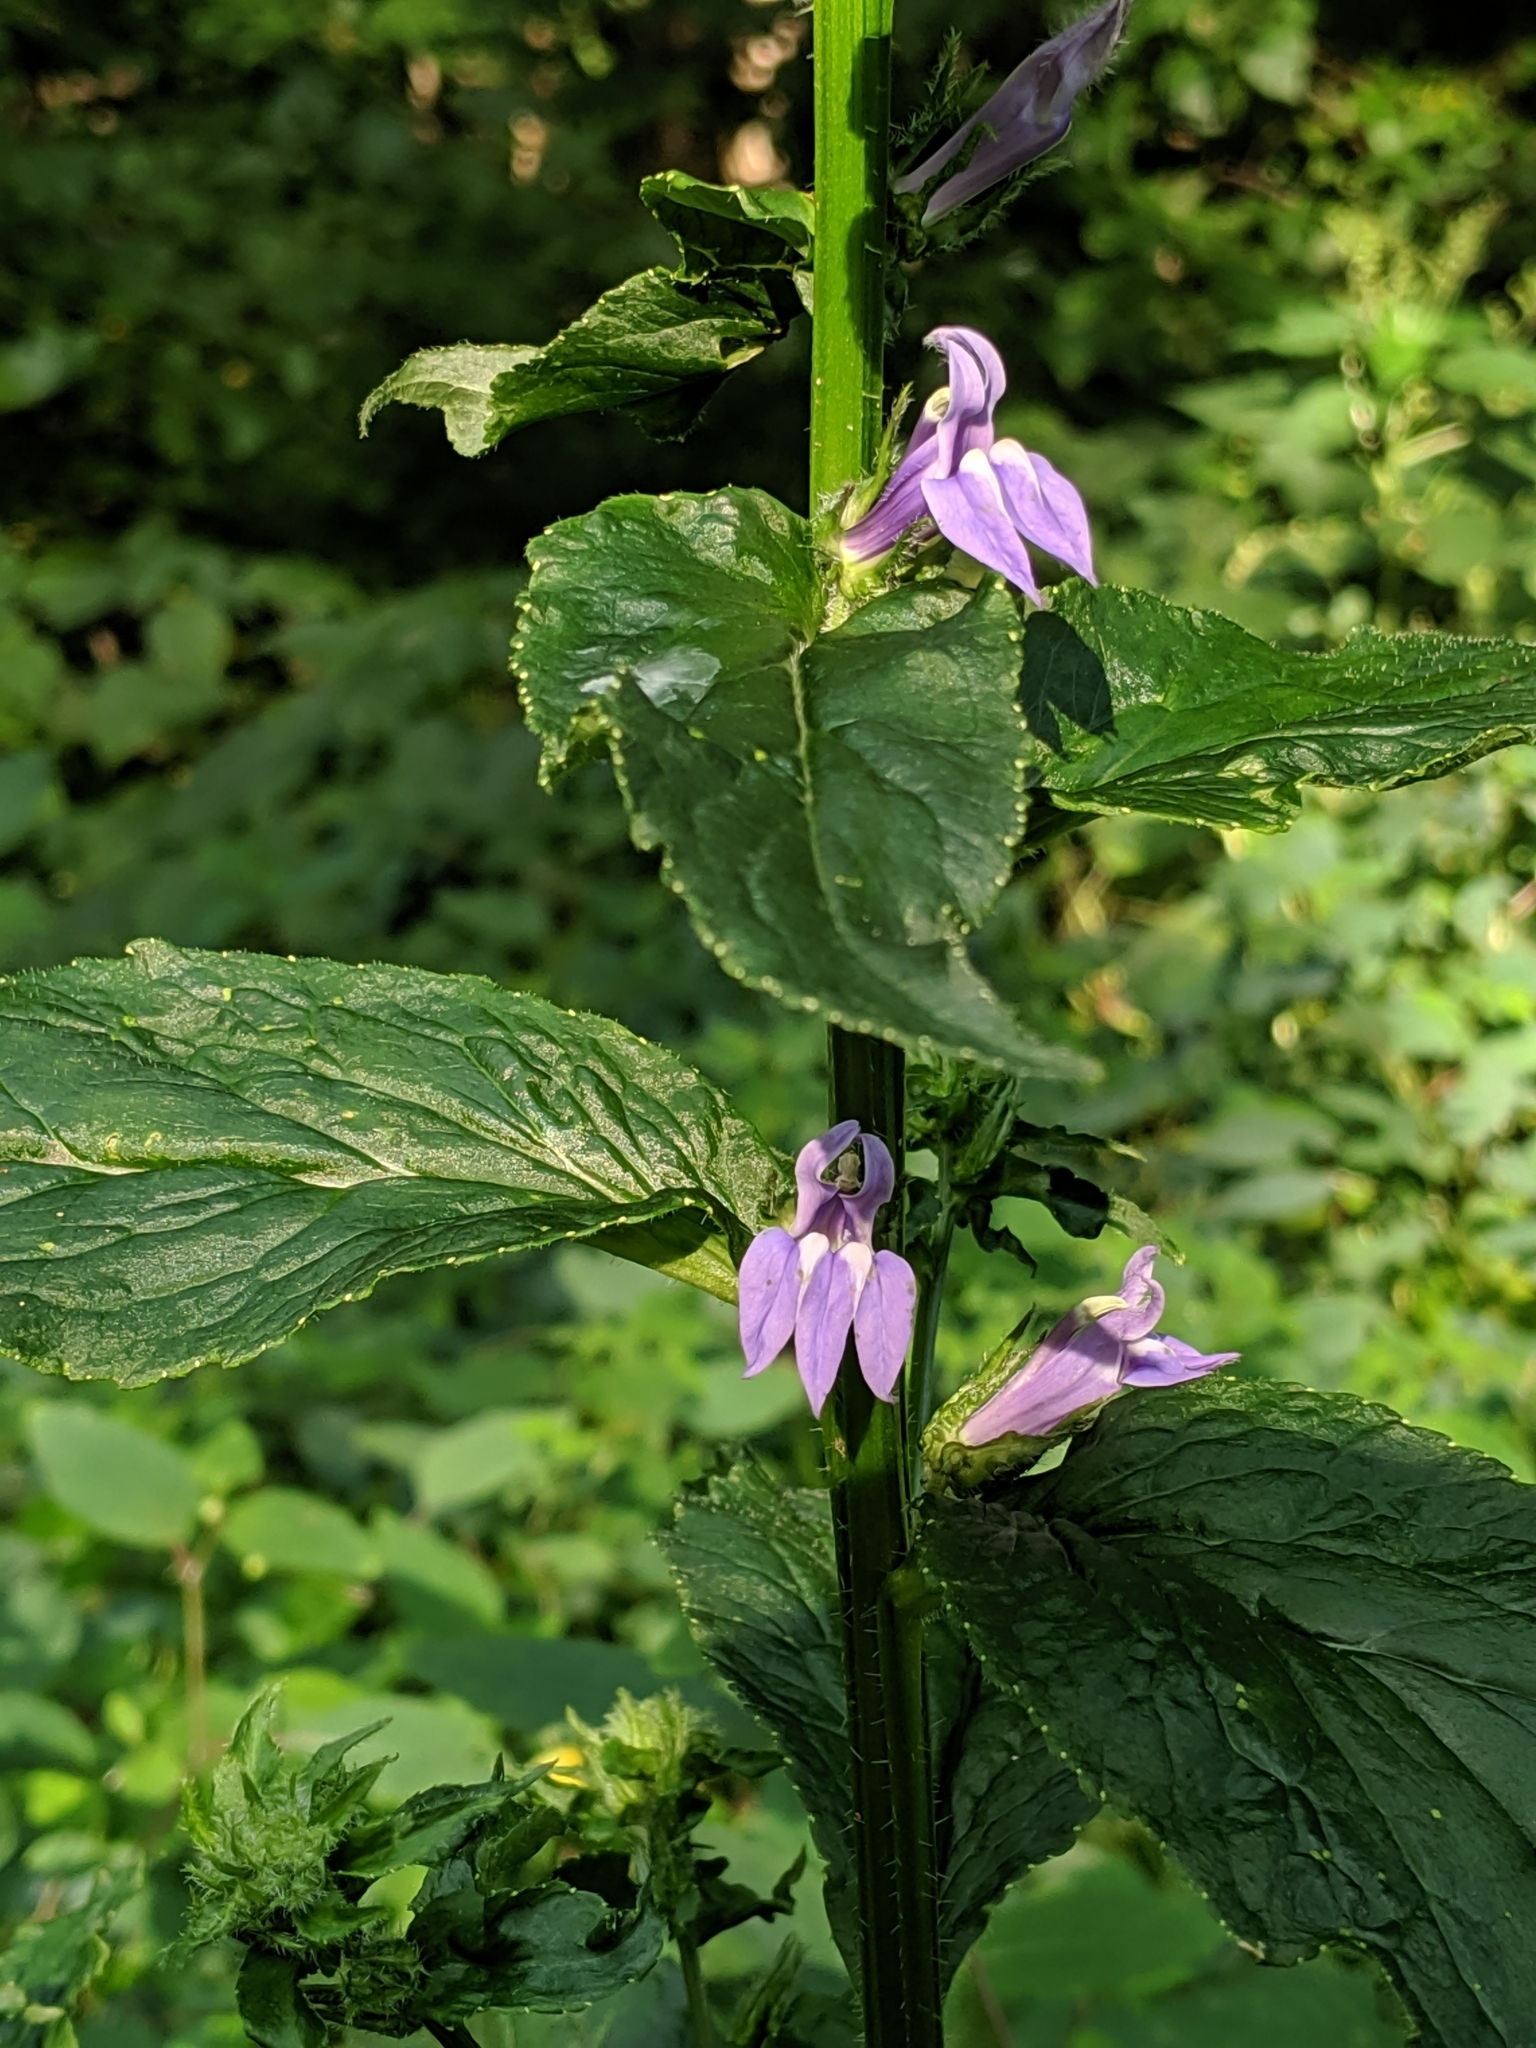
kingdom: Plantae
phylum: Tracheophyta
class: Magnoliopsida
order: Asterales
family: Campanulaceae
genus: Lobelia
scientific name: Lobelia siphilitica
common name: Great lobelia
